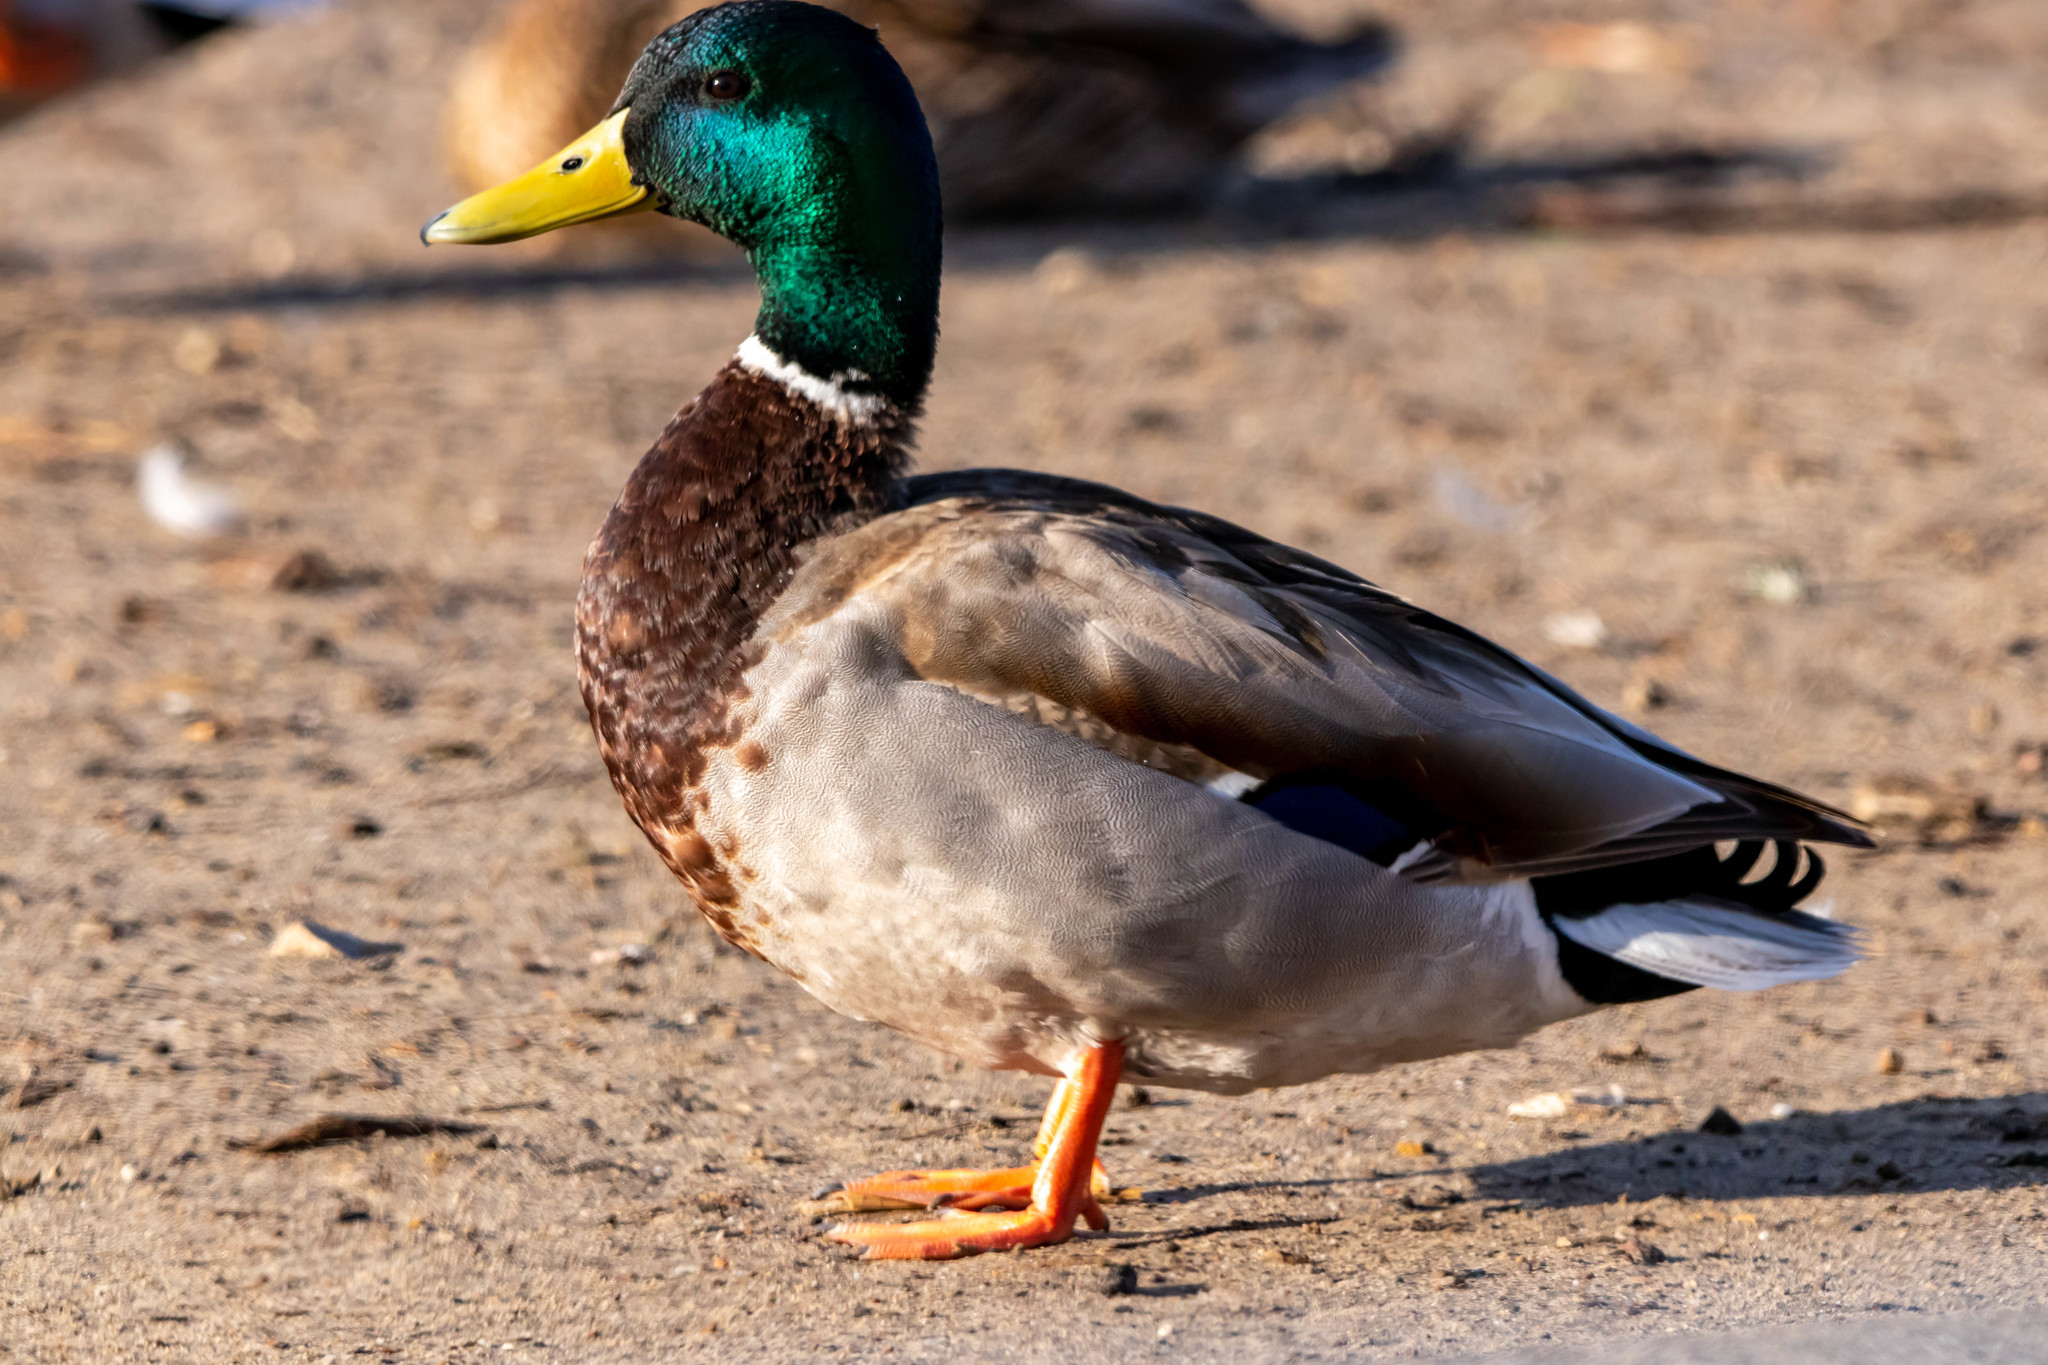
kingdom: Animalia
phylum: Chordata
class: Aves
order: Anseriformes
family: Anatidae
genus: Anas
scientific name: Anas platyrhynchos
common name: Mallard
